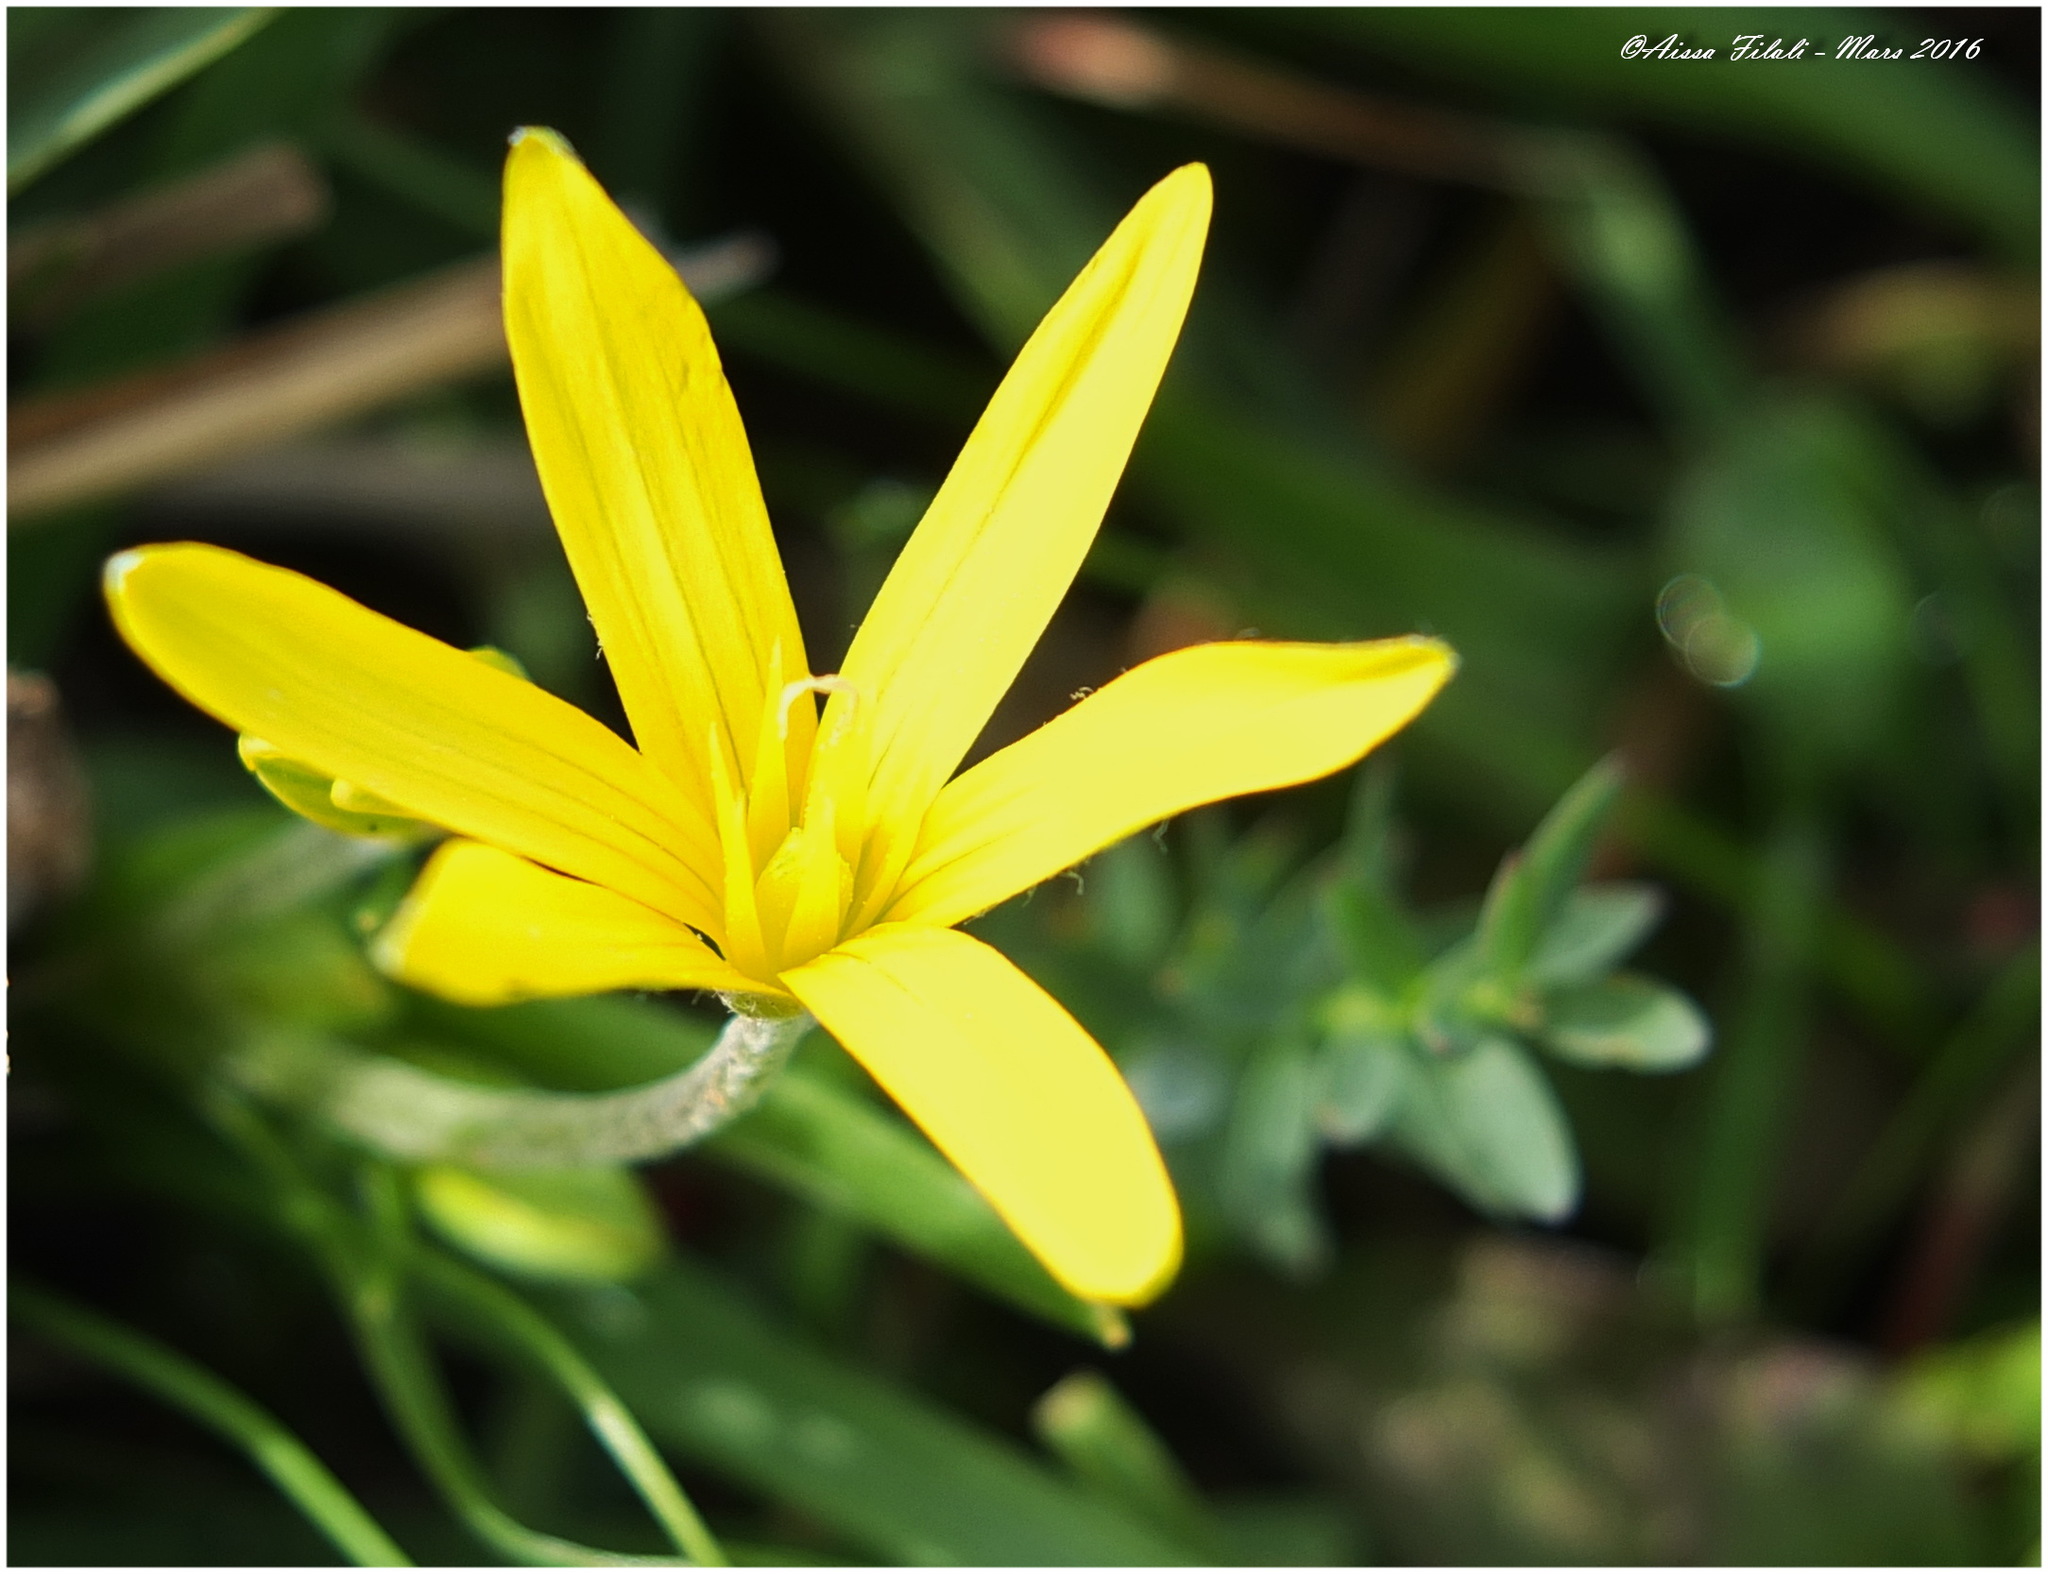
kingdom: Plantae
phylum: Tracheophyta
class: Liliopsida
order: Liliales
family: Liliaceae
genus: Gagea
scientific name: Gagea granatellii
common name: Granatelli’s gagea
